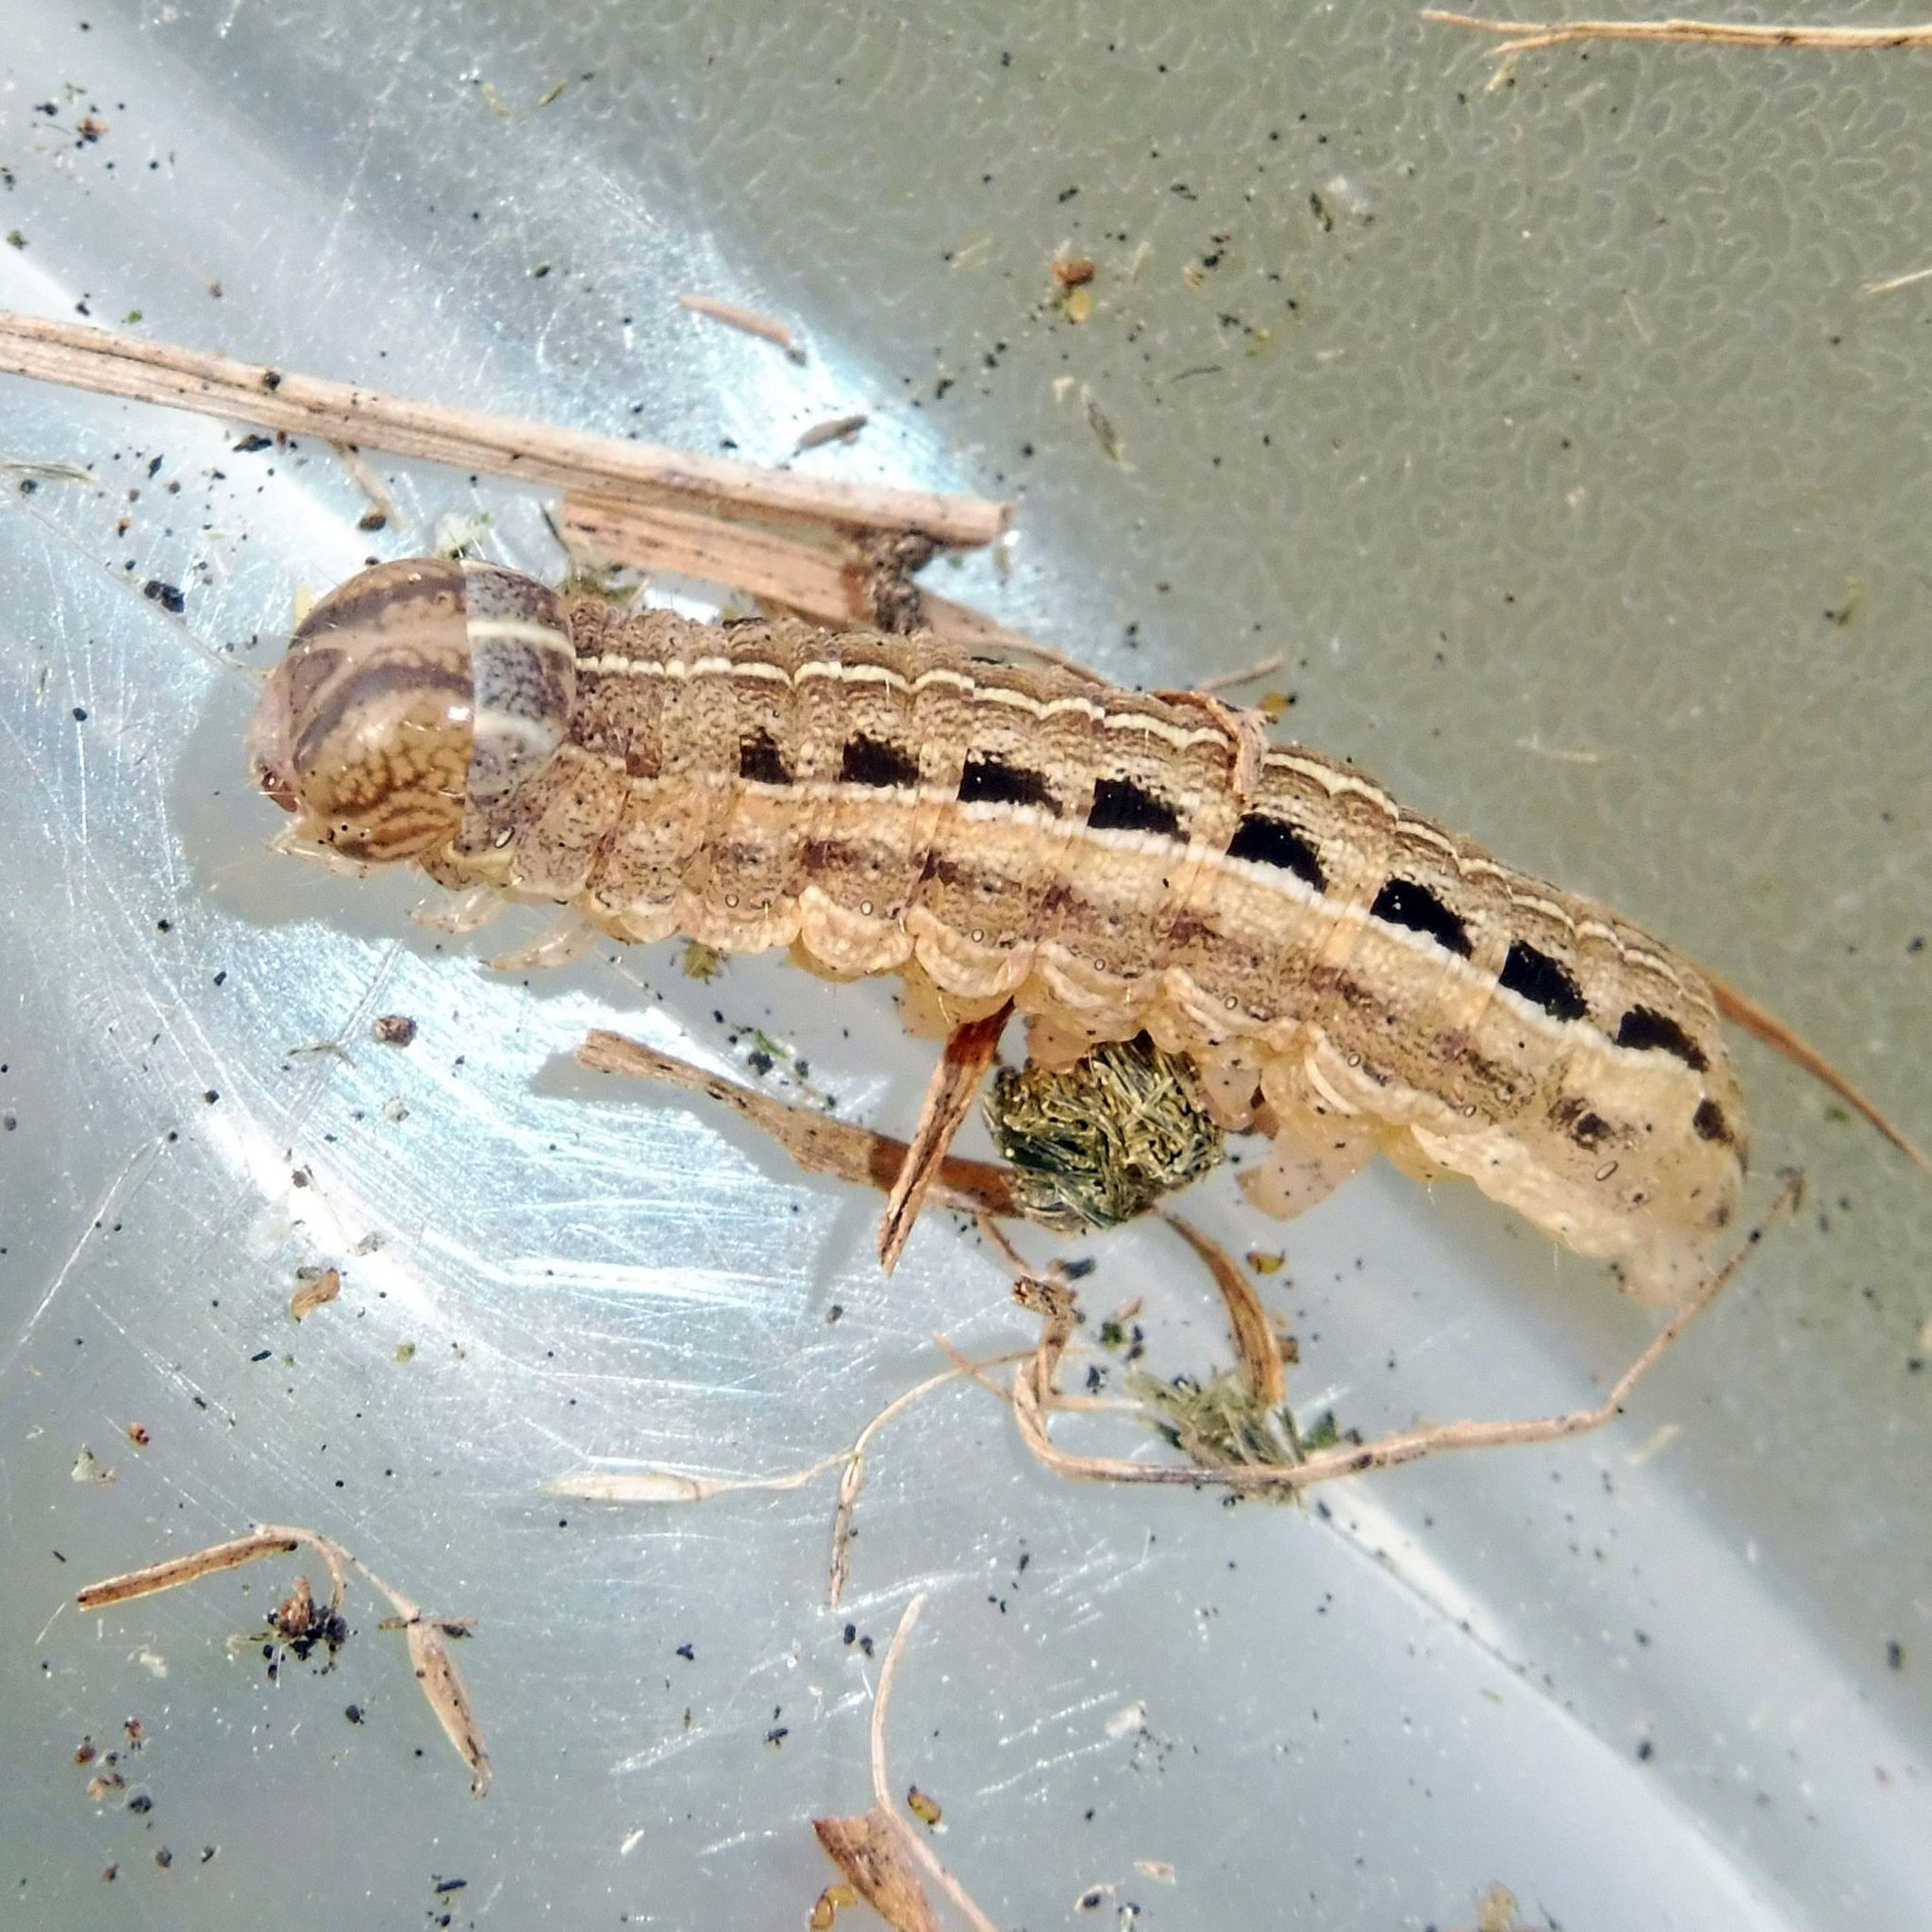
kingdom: Animalia
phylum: Arthropoda
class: Insecta
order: Lepidoptera
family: Noctuidae
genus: Xestia
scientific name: Xestia xanthographa
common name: Square-spot rustic
